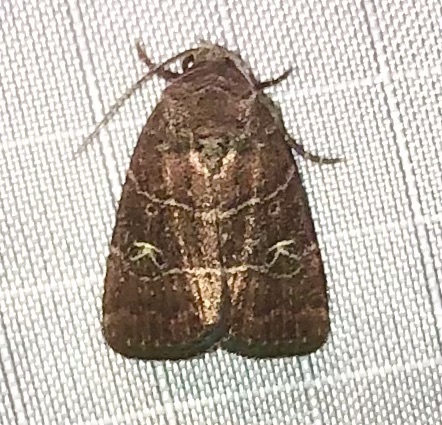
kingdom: Animalia
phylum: Arthropoda
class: Insecta
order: Lepidoptera
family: Noctuidae
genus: Elaphria
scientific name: Elaphria grata
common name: Grateful midget moth
